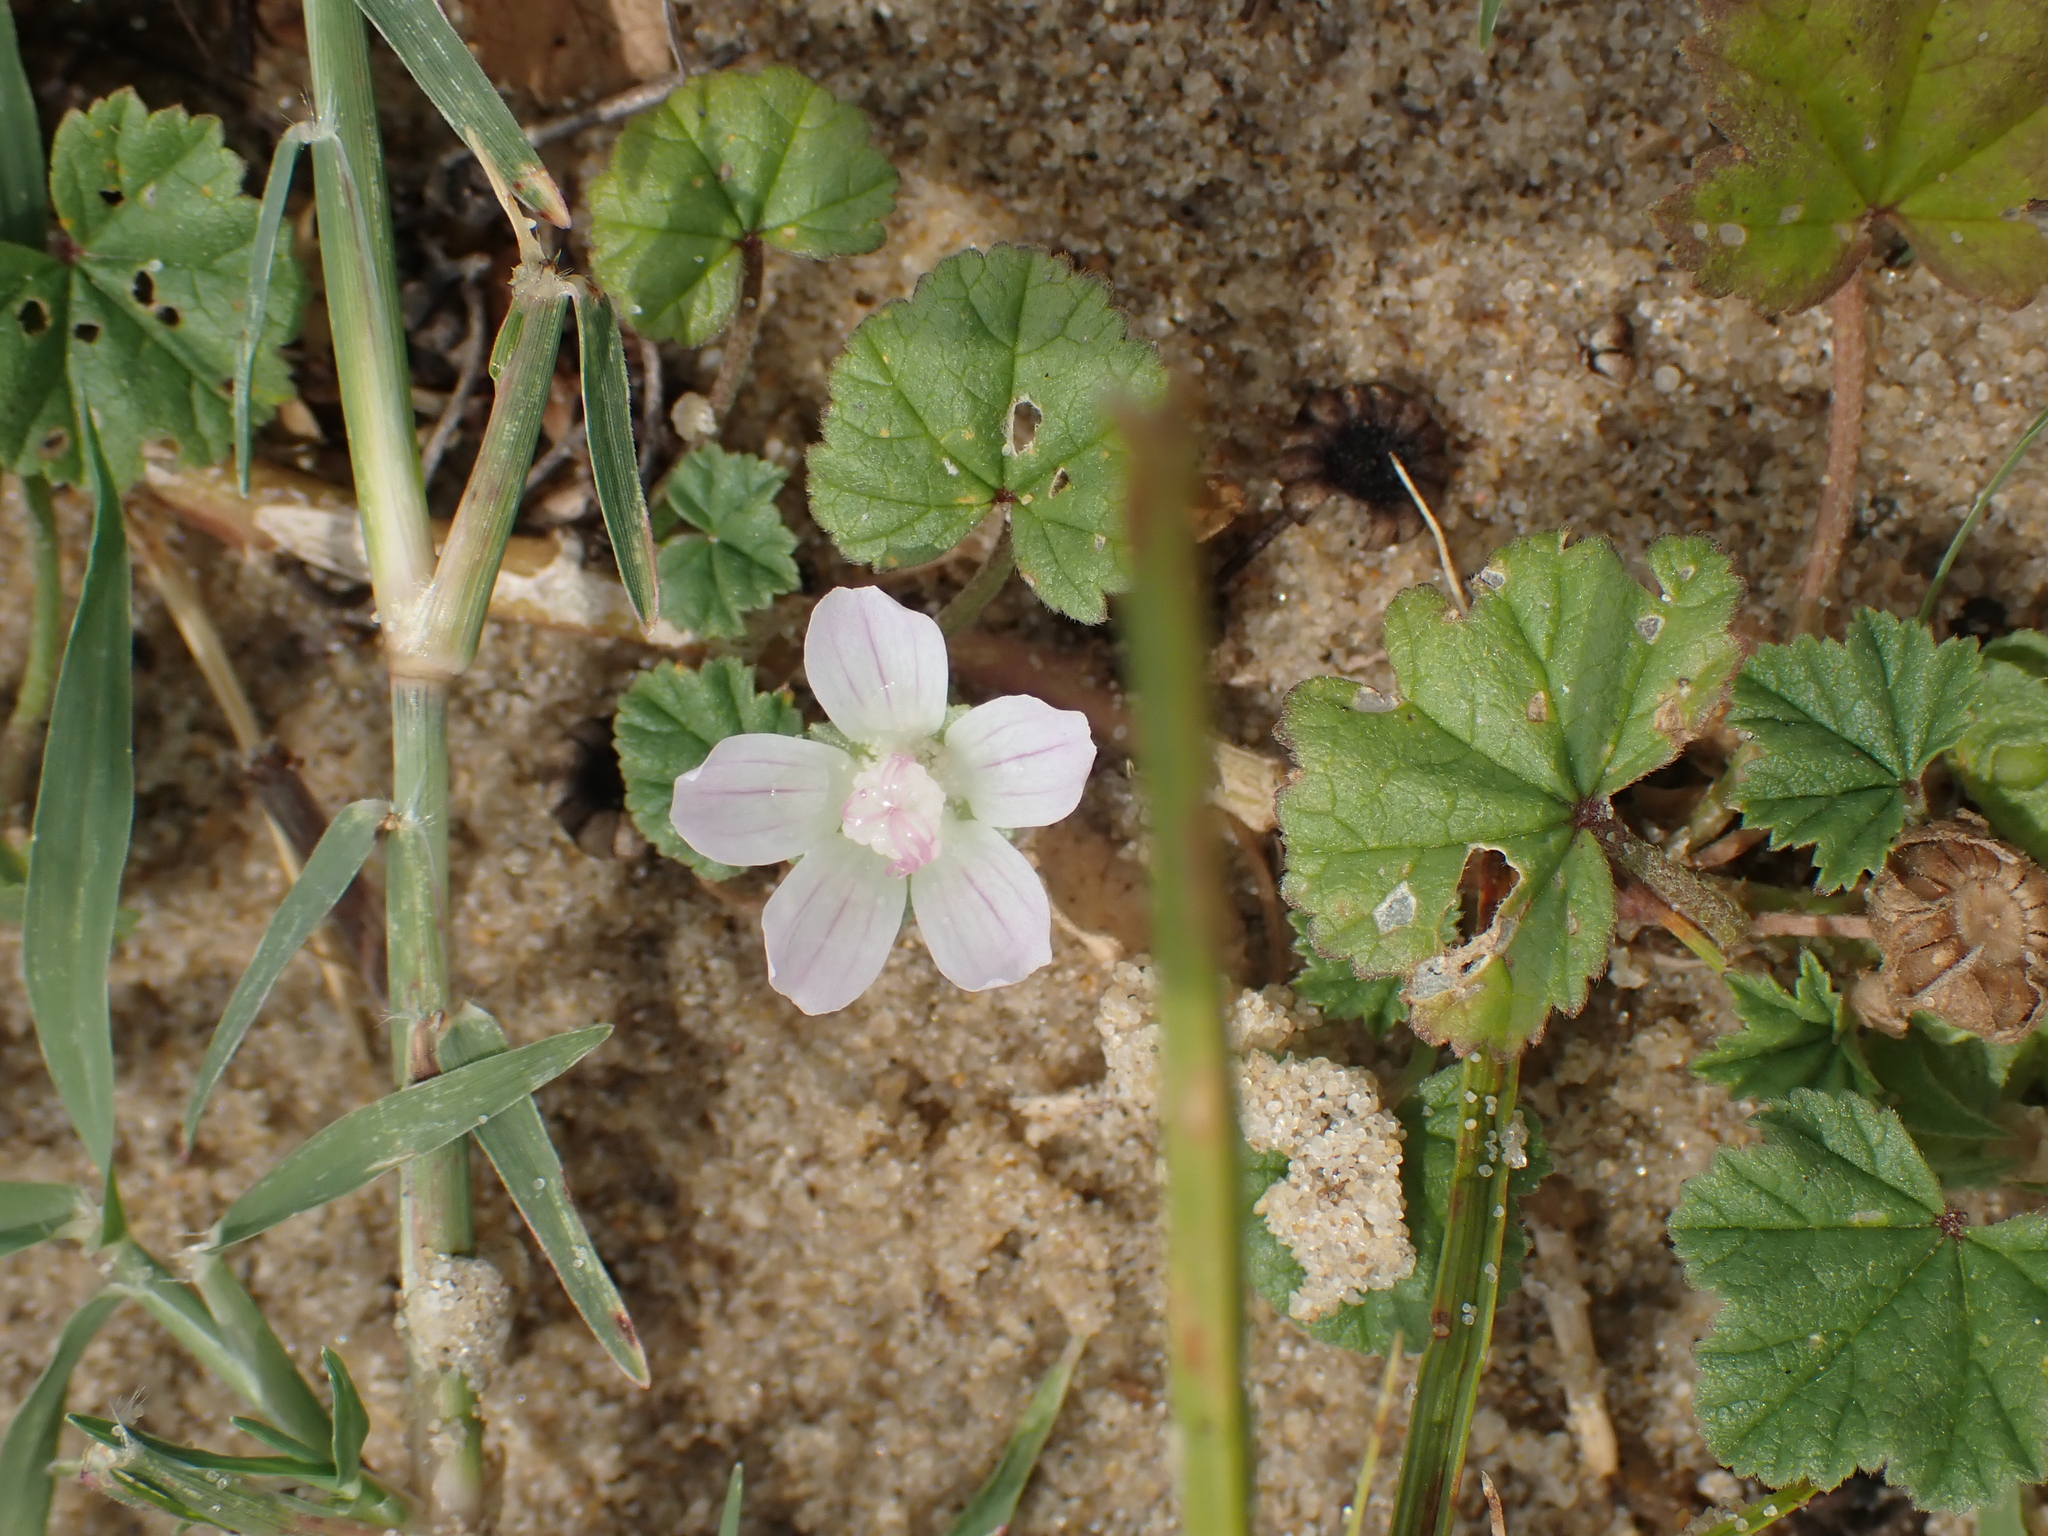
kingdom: Plantae
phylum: Tracheophyta
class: Magnoliopsida
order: Malvales
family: Malvaceae
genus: Malva
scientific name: Malva neglecta
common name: Common mallow
